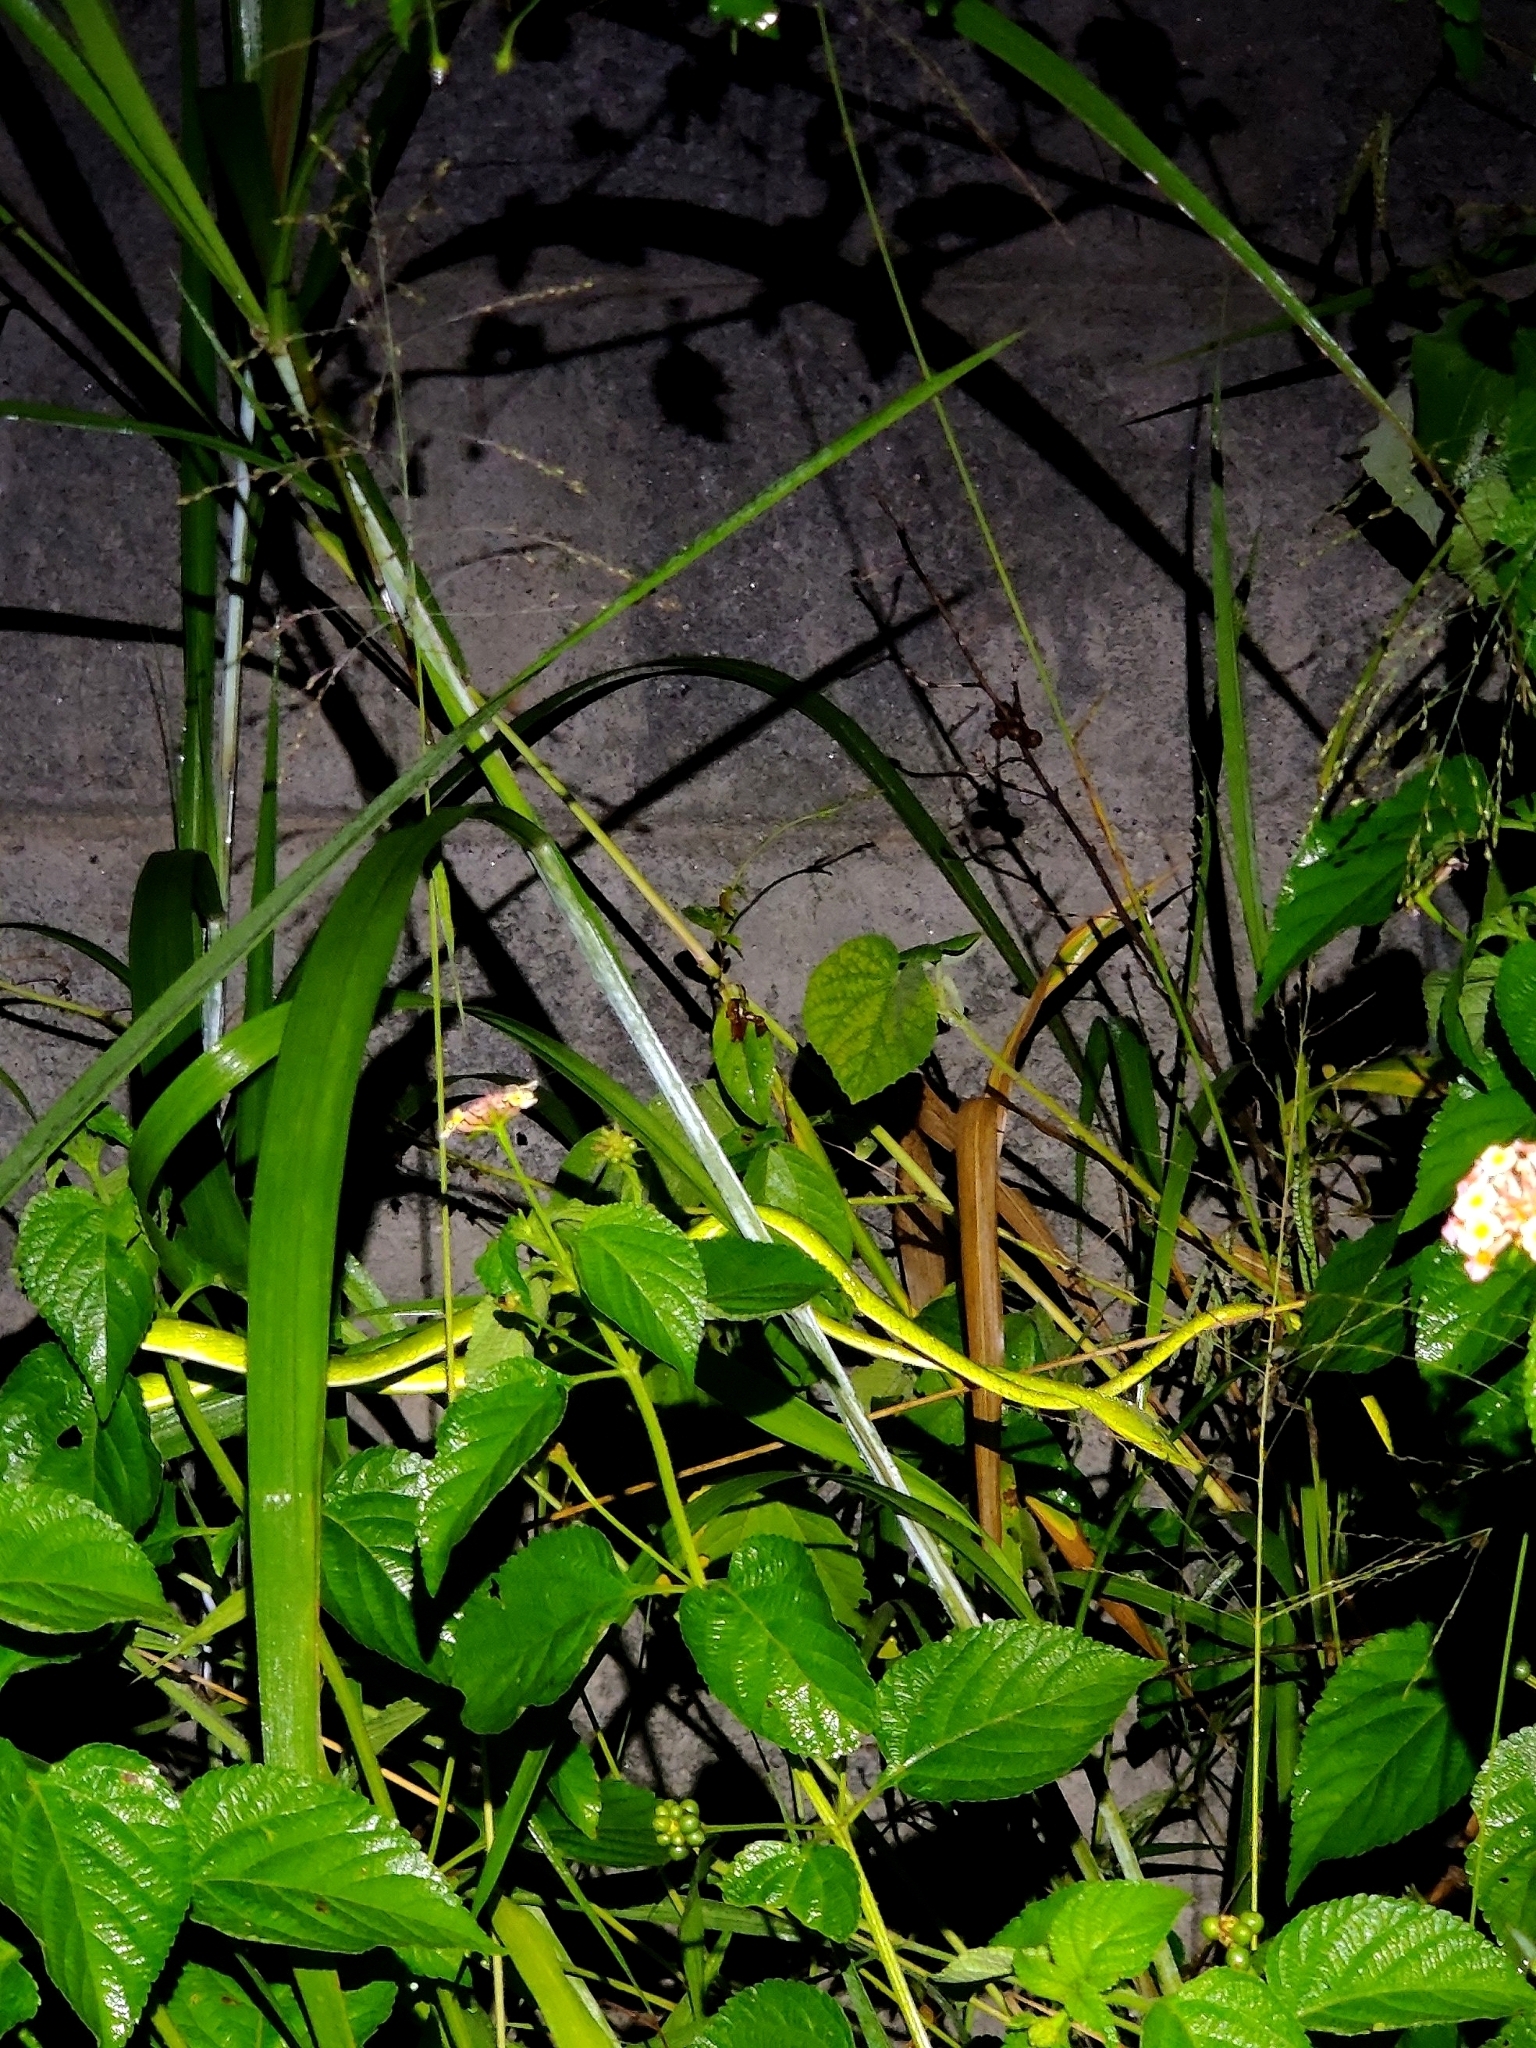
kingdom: Animalia
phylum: Chordata
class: Squamata
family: Colubridae
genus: Ahaetulla
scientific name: Ahaetulla oxyrhyncha
